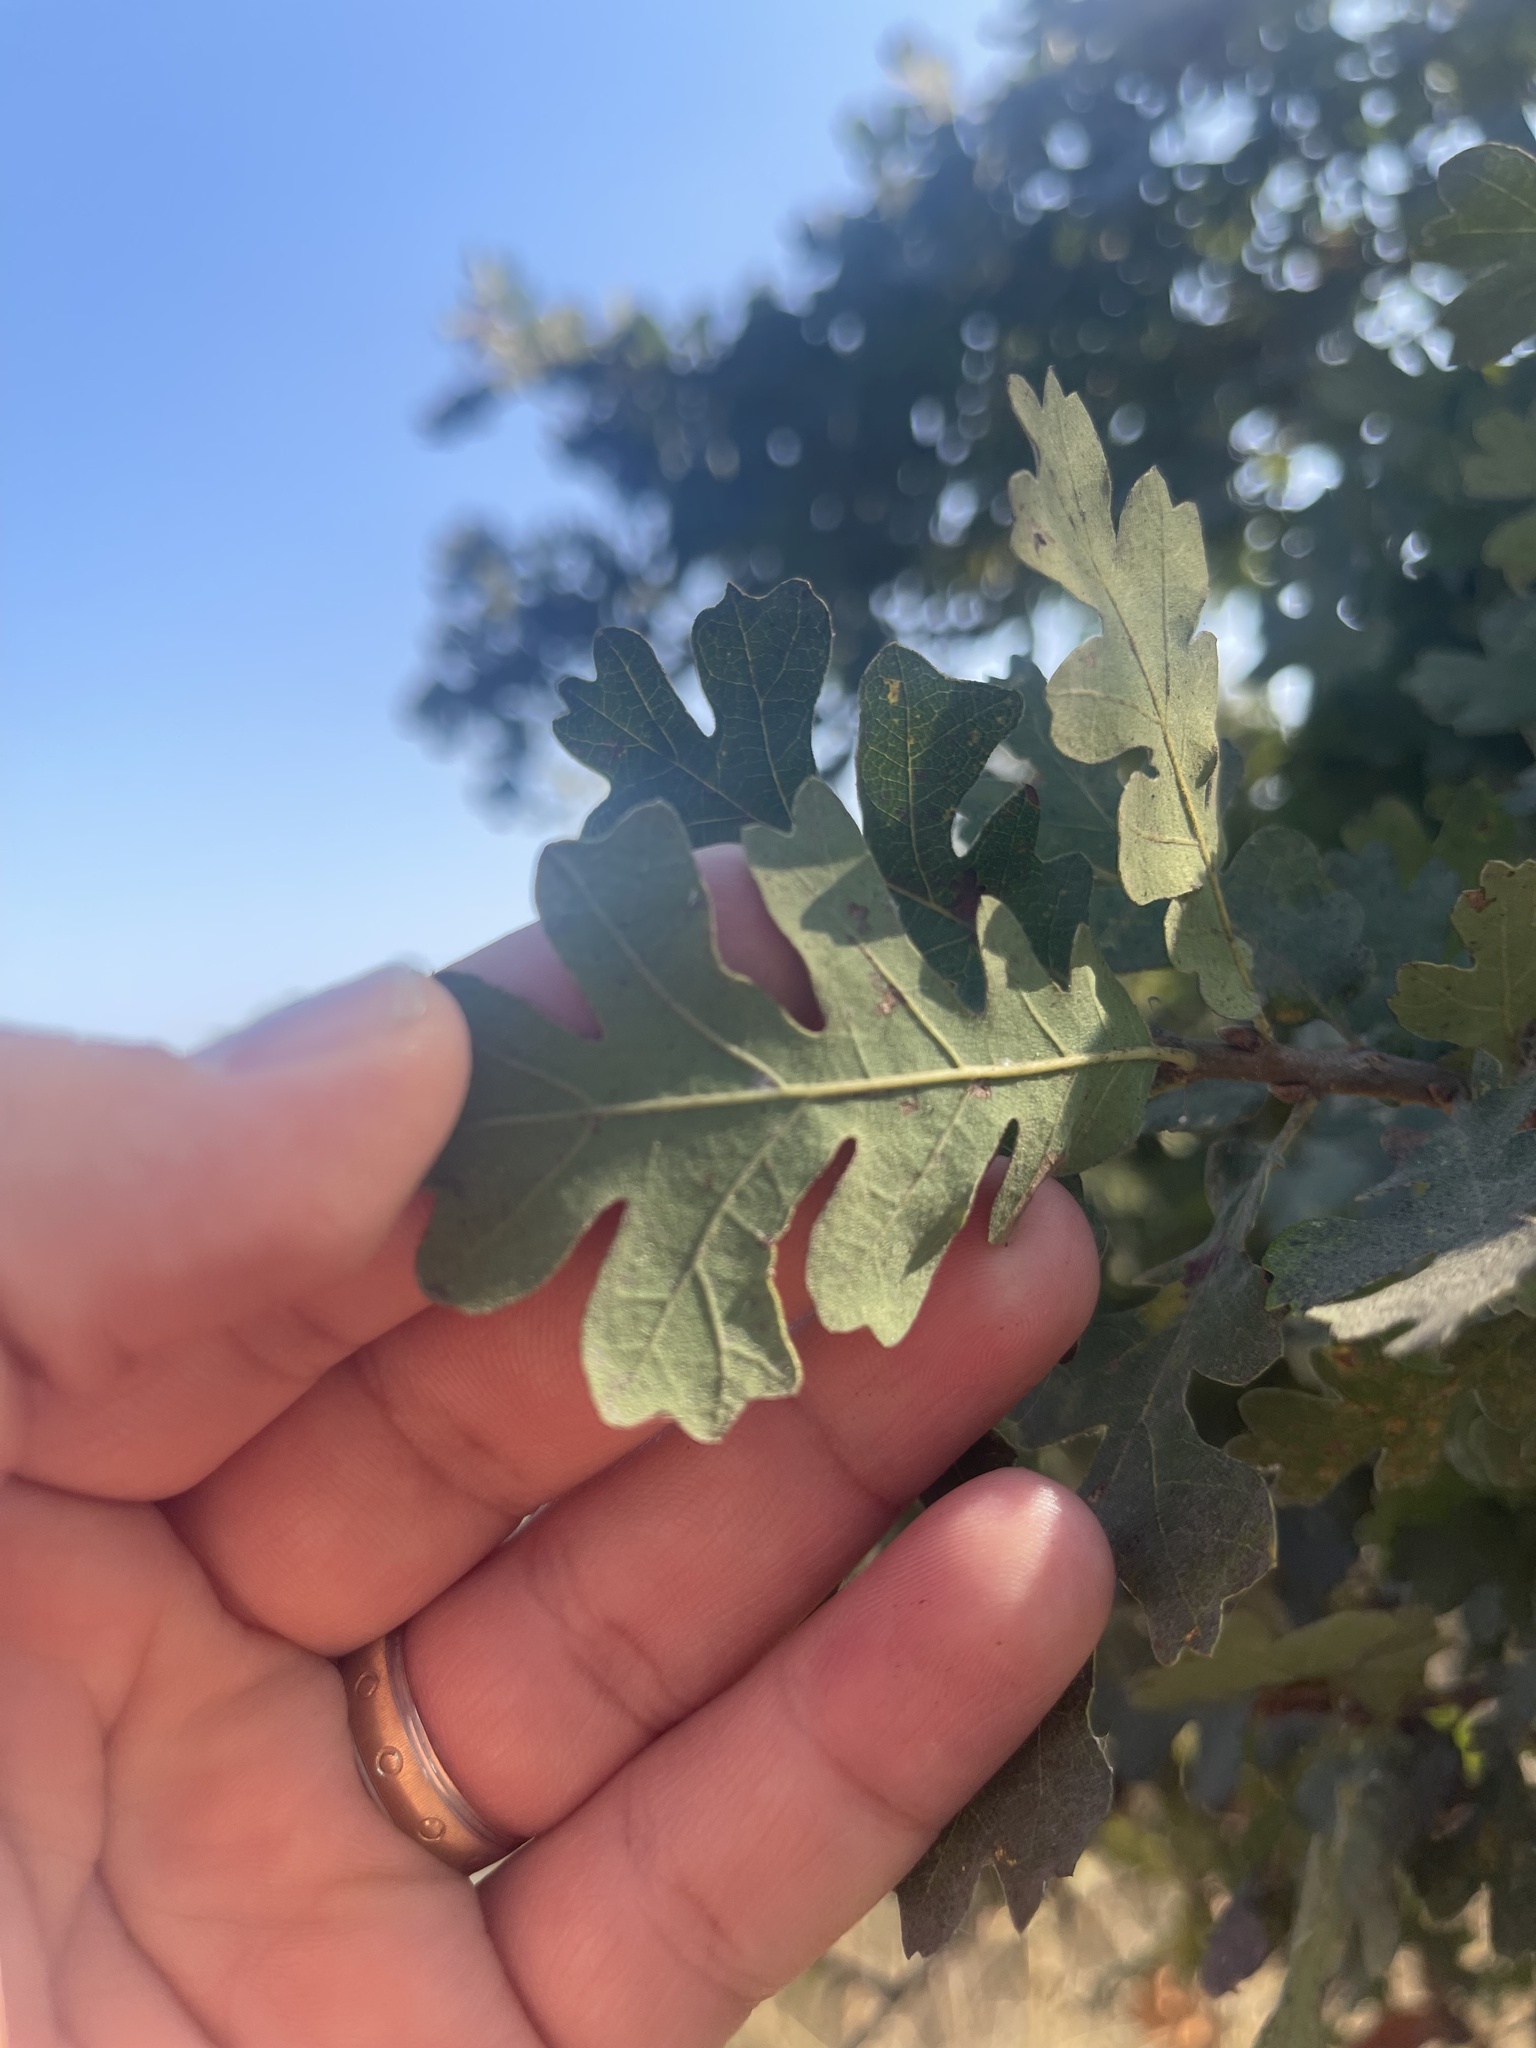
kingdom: Plantae
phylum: Tracheophyta
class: Magnoliopsida
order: Fagales
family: Fagaceae
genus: Quercus
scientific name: Quercus lobata
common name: Valley oak
